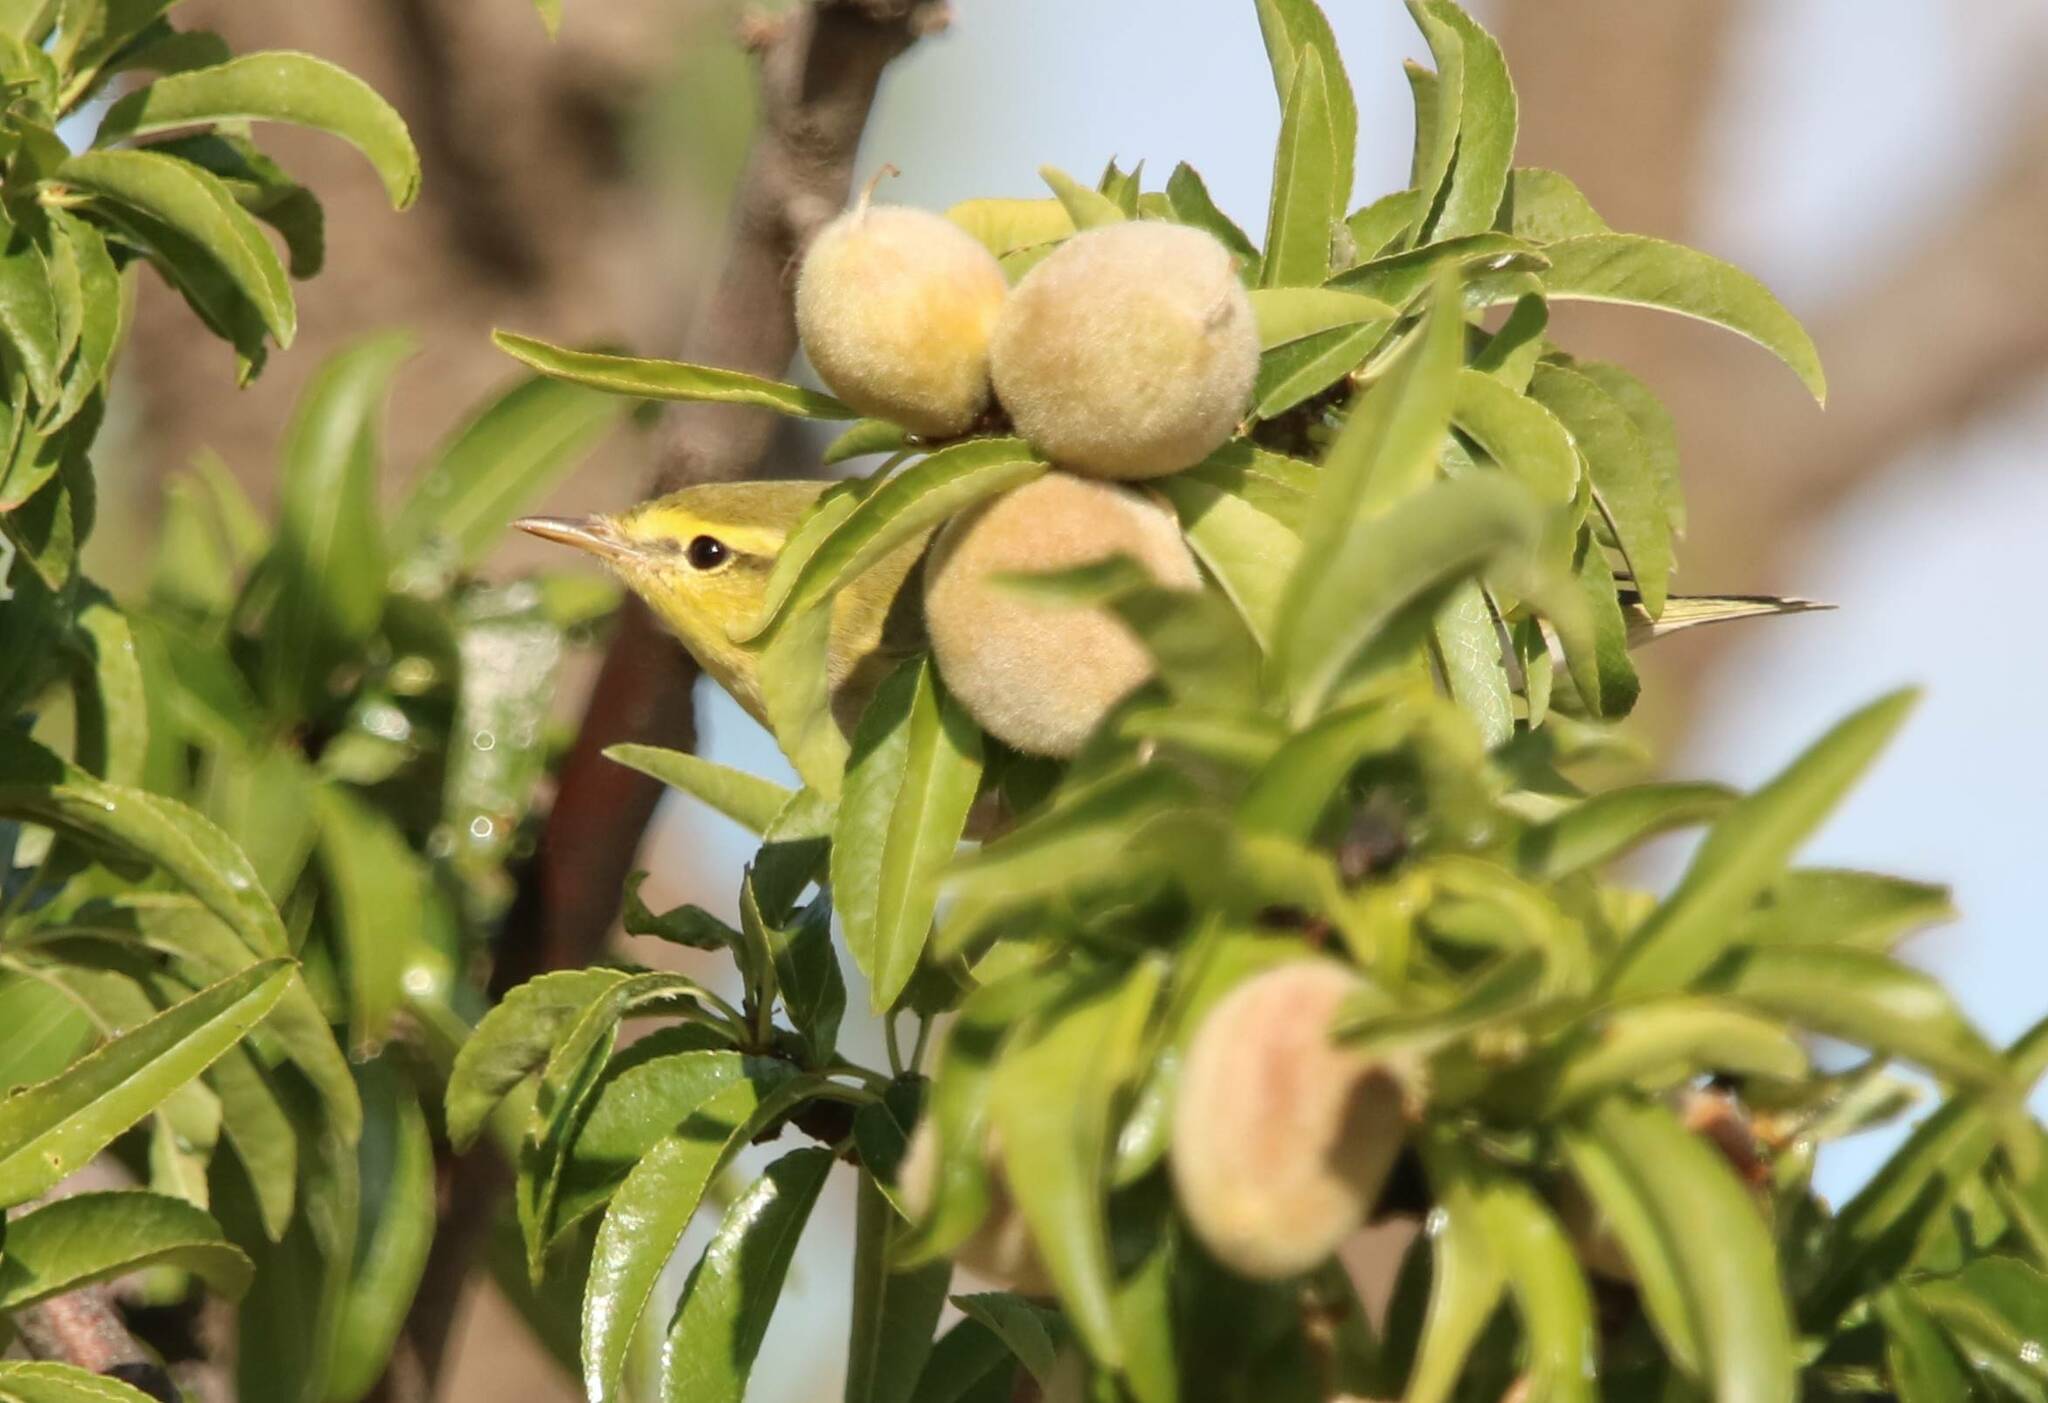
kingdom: Animalia
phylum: Chordata
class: Aves
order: Passeriformes
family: Phylloscopidae
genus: Phylloscopus
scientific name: Phylloscopus sibillatrix
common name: Wood warbler
